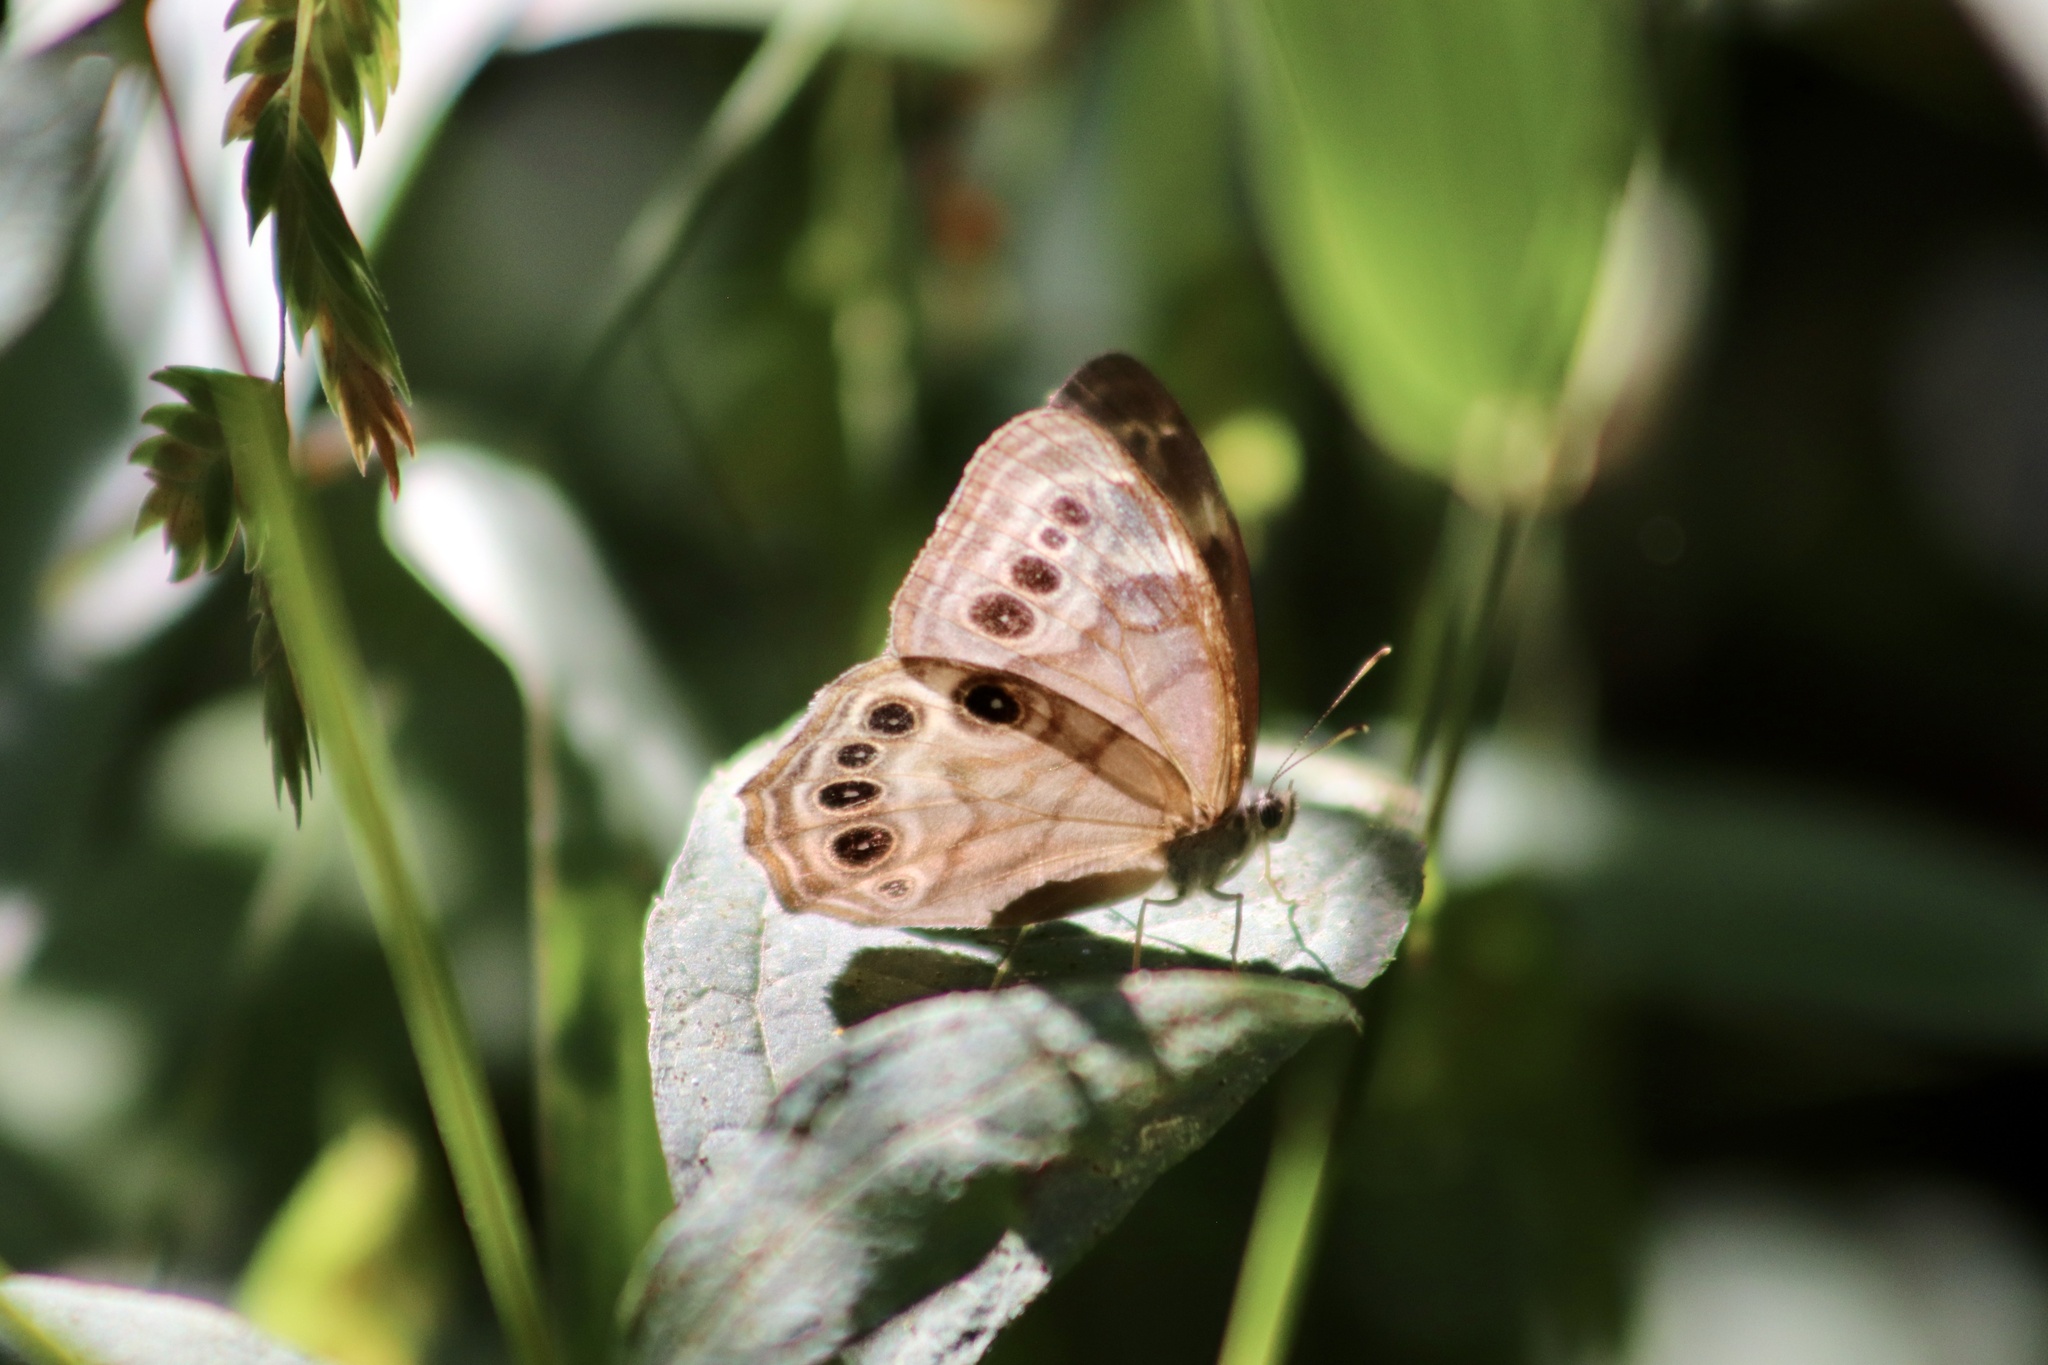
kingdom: Animalia
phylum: Arthropoda
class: Insecta
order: Lepidoptera
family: Nymphalidae
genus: Lethe
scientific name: Lethe anthedon
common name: Northern pearly-eye
